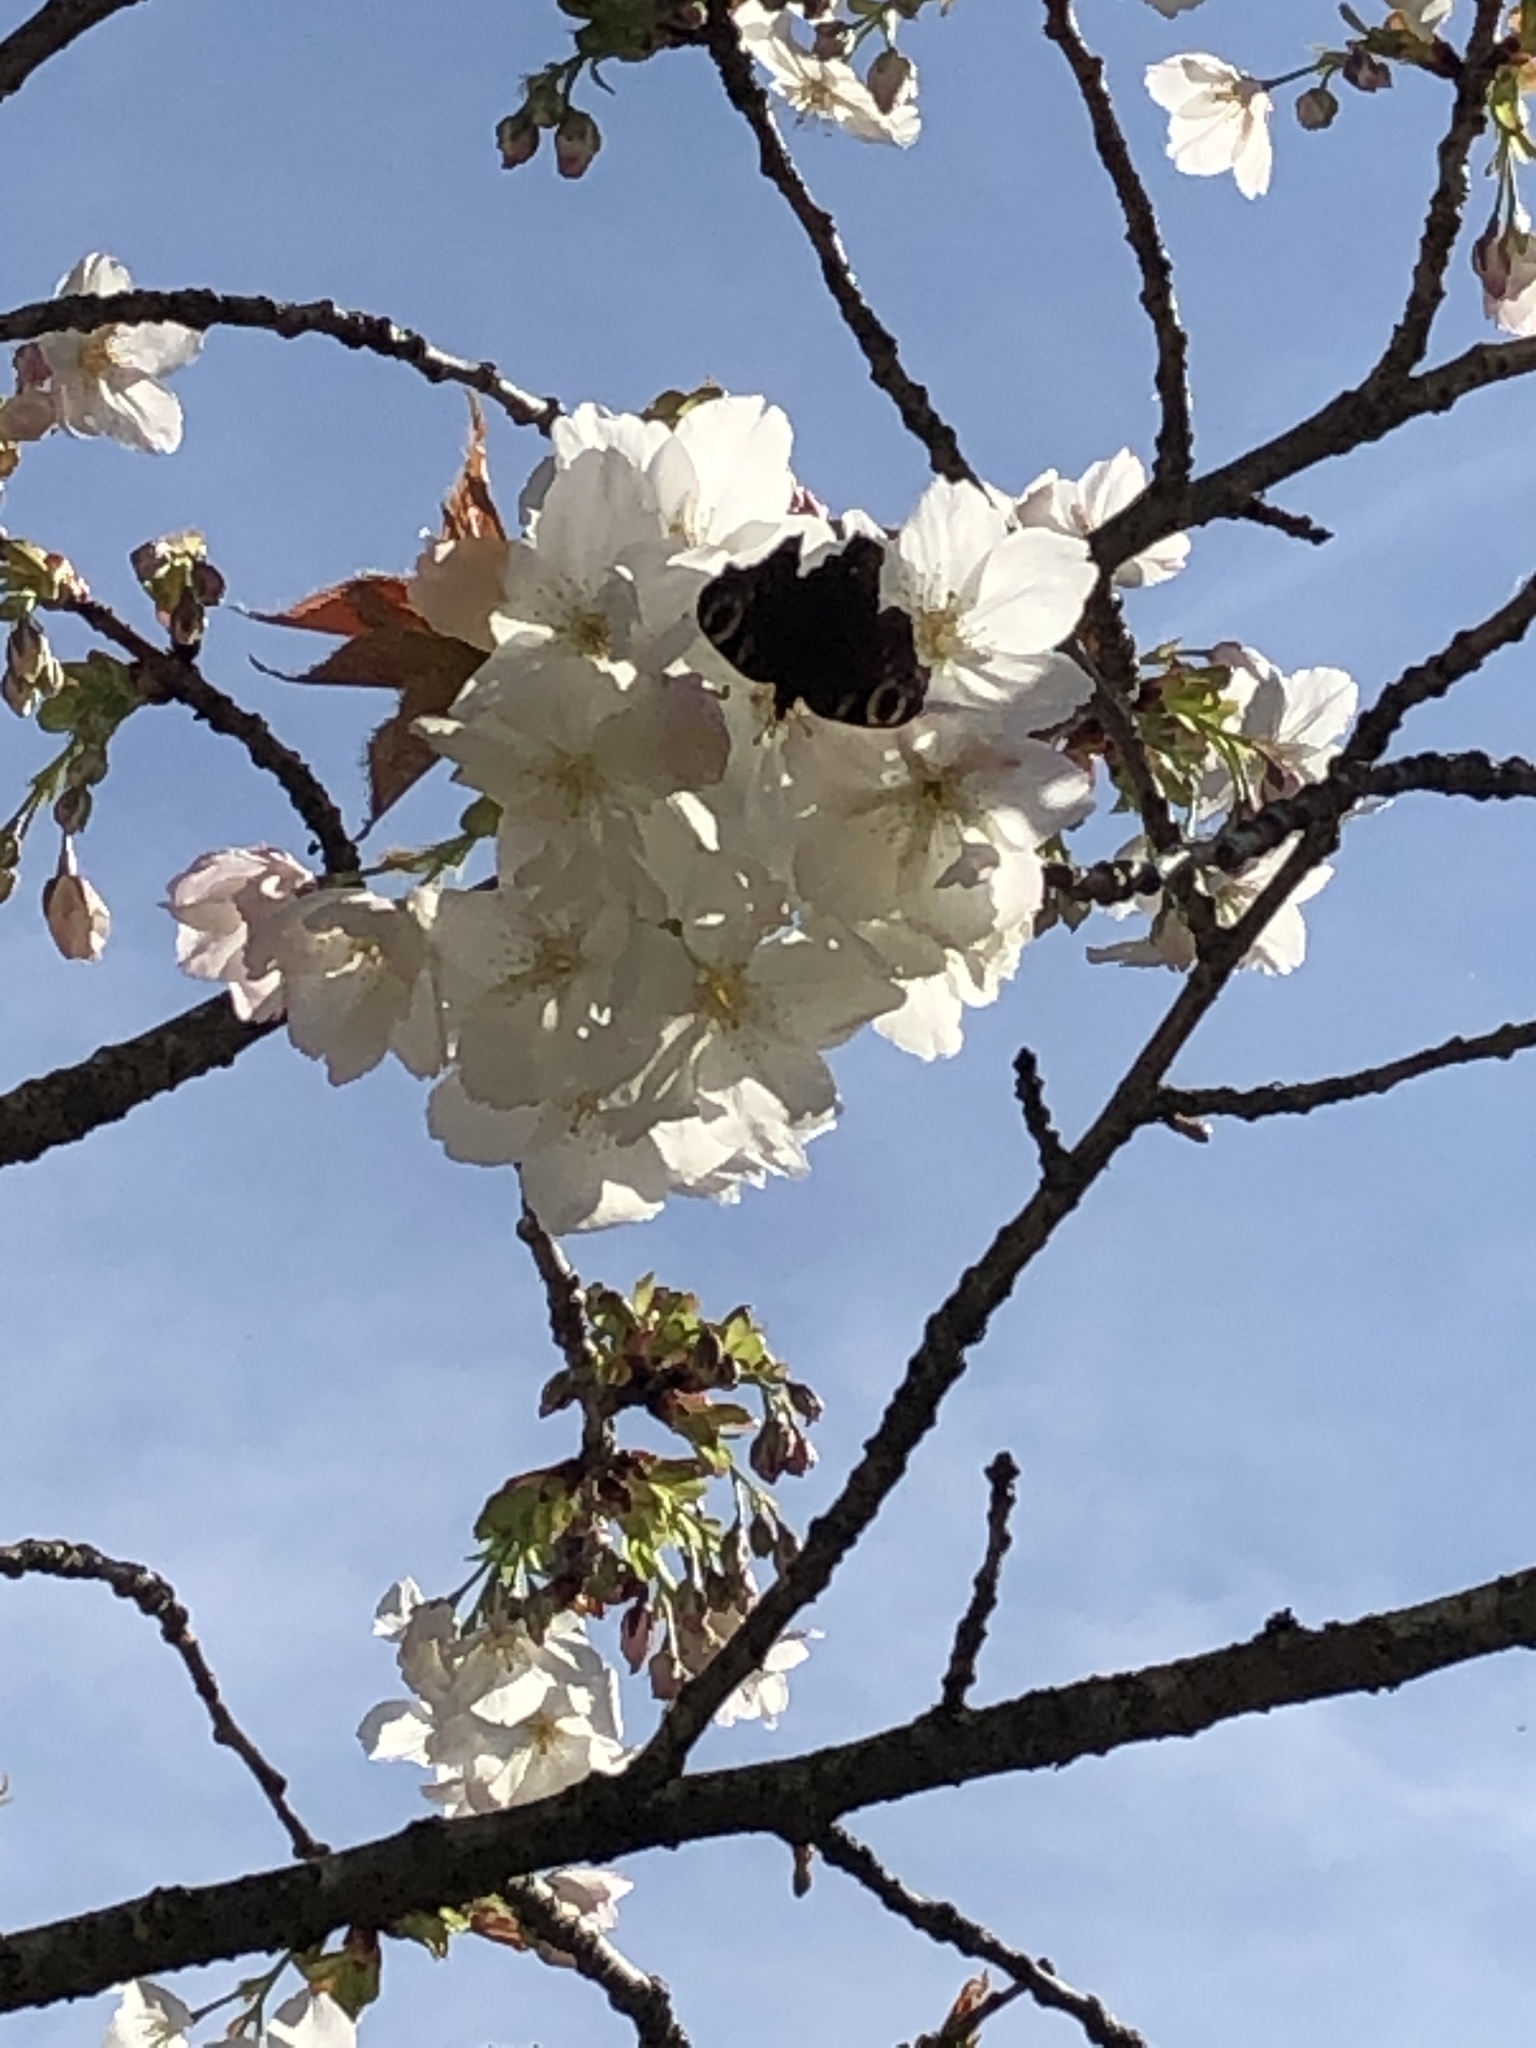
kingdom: Animalia
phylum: Arthropoda
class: Insecta
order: Lepidoptera
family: Nymphalidae
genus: Aglais
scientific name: Aglais io
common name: Peacock
